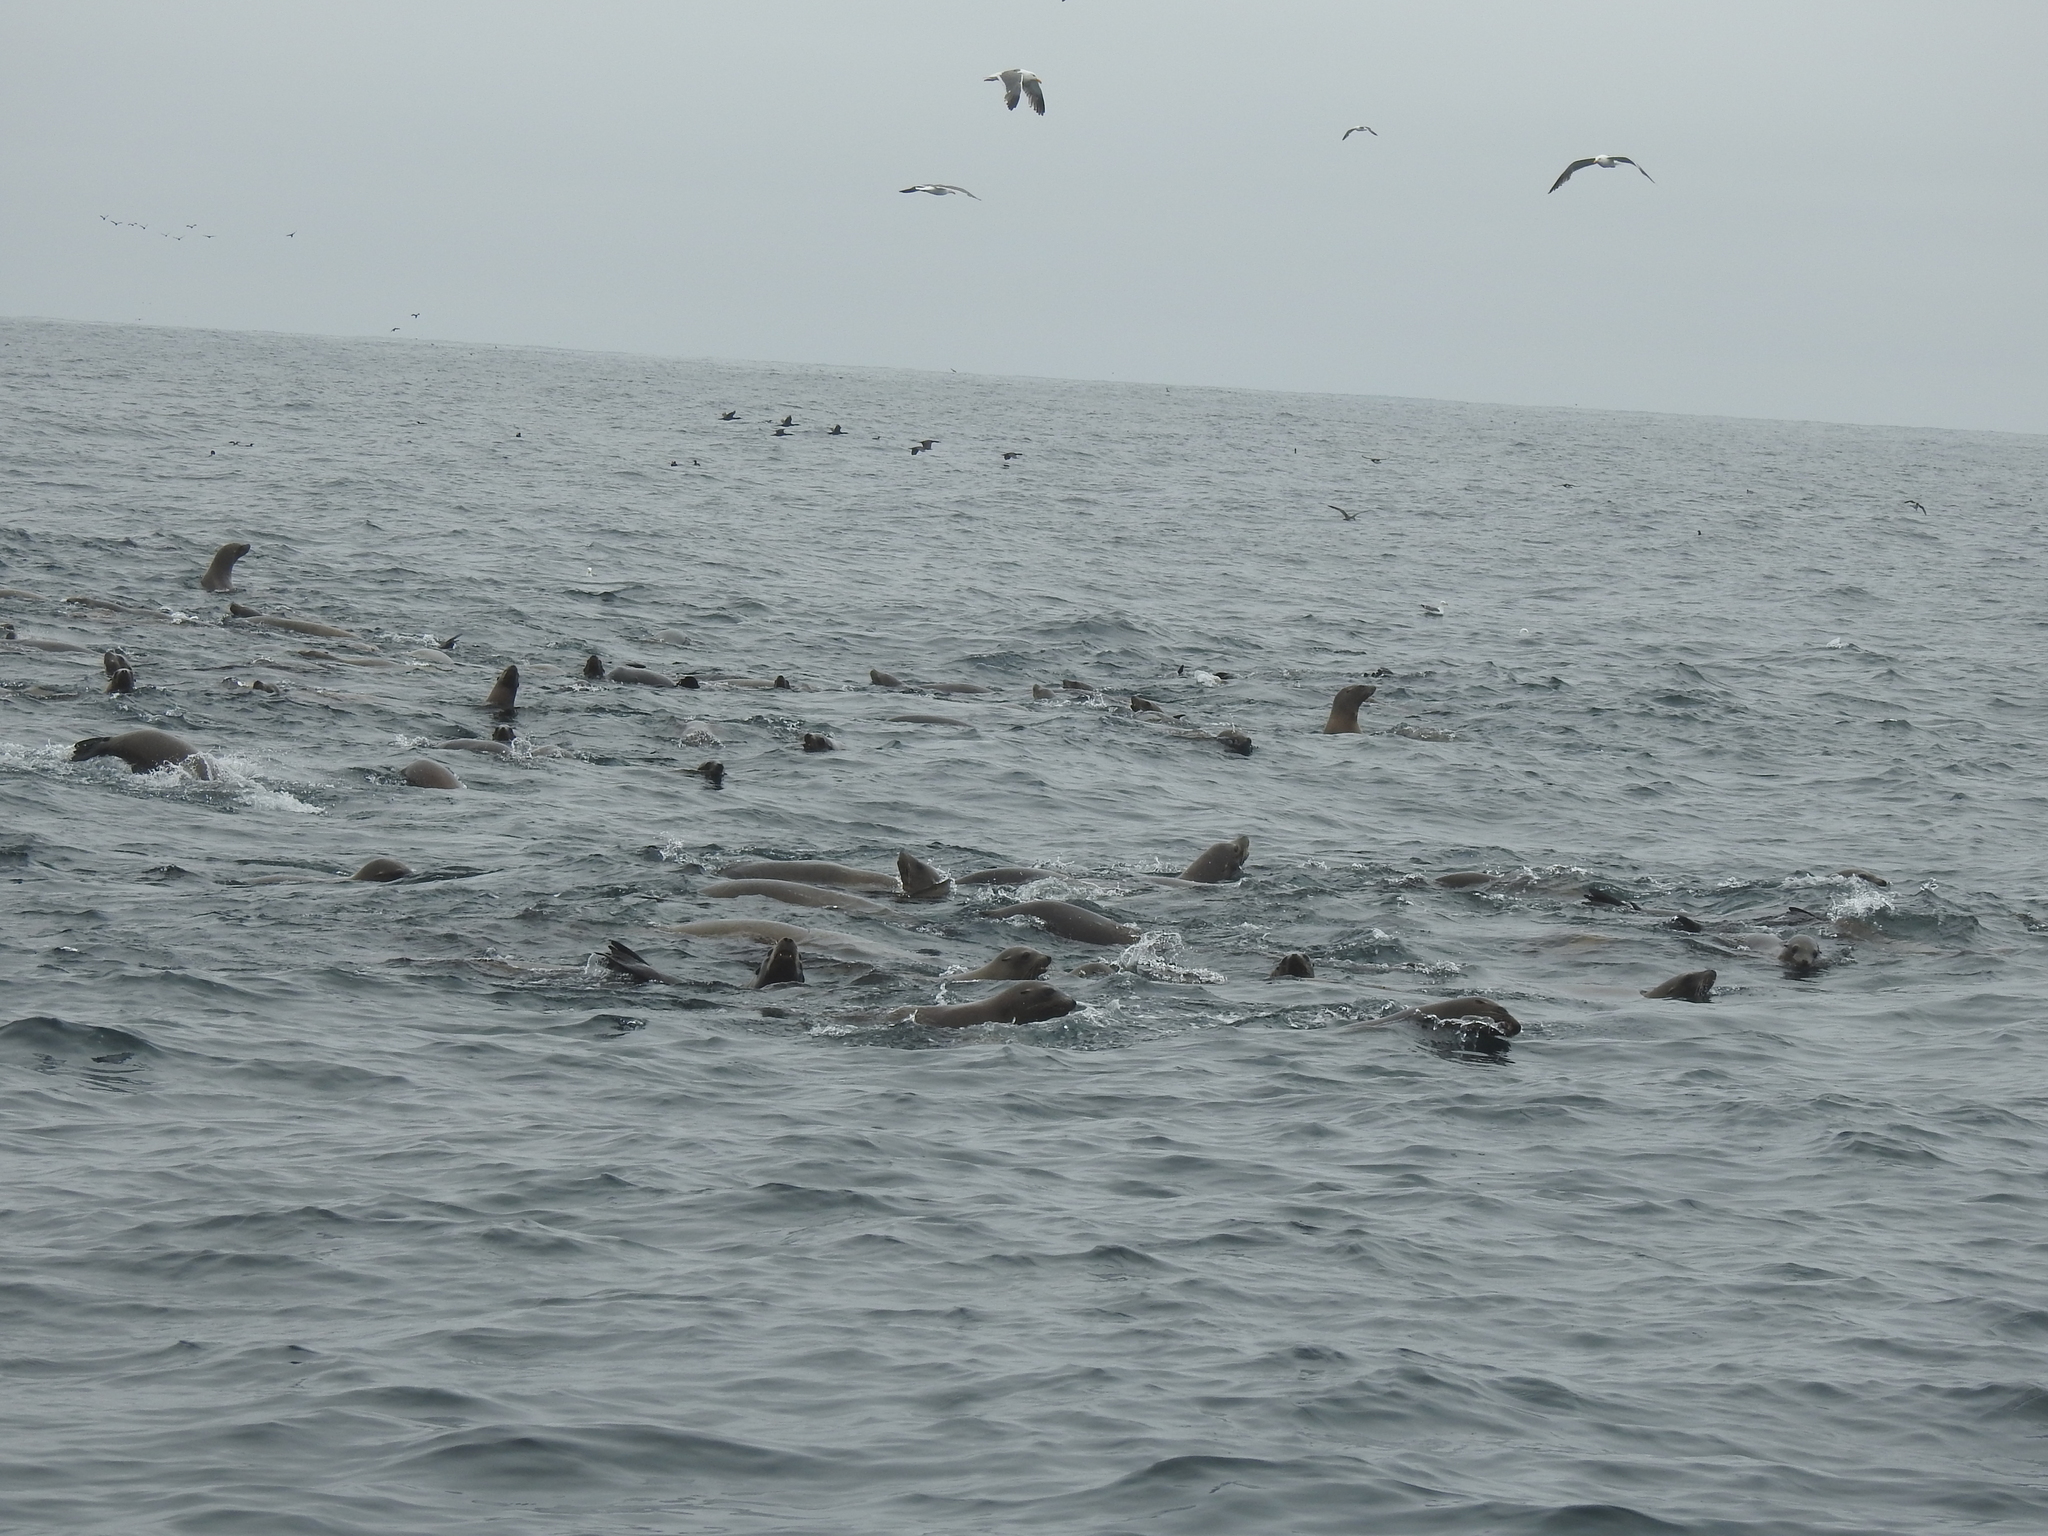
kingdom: Animalia
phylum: Chordata
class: Mammalia
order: Carnivora
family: Otariidae
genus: Zalophus
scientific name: Zalophus californianus
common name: California sea lion
